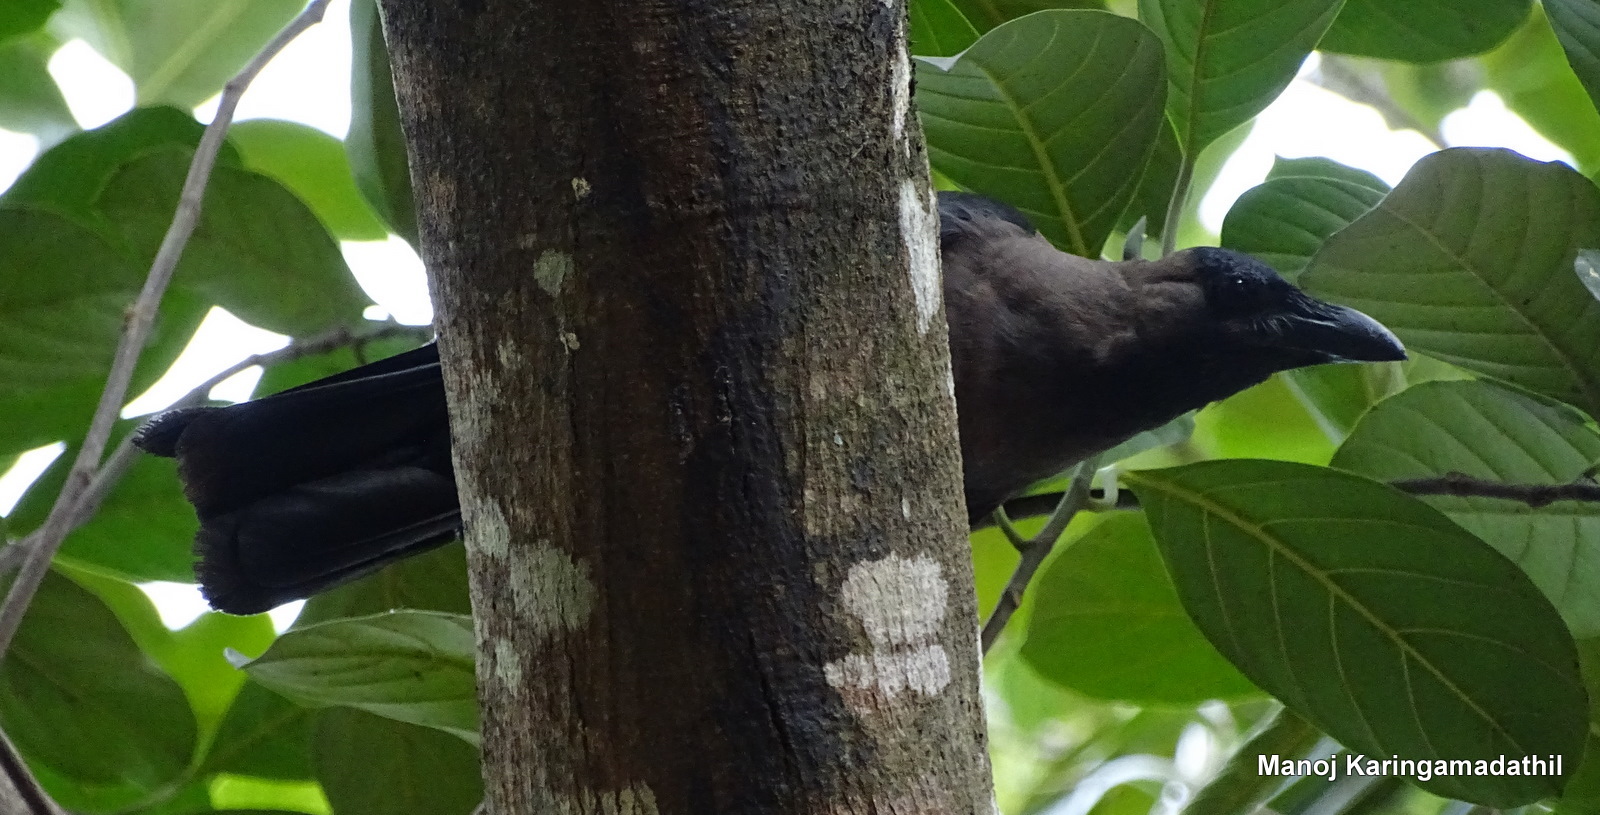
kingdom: Animalia
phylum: Chordata
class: Aves
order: Passeriformes
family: Corvidae
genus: Corvus
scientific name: Corvus splendens
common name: House crow
